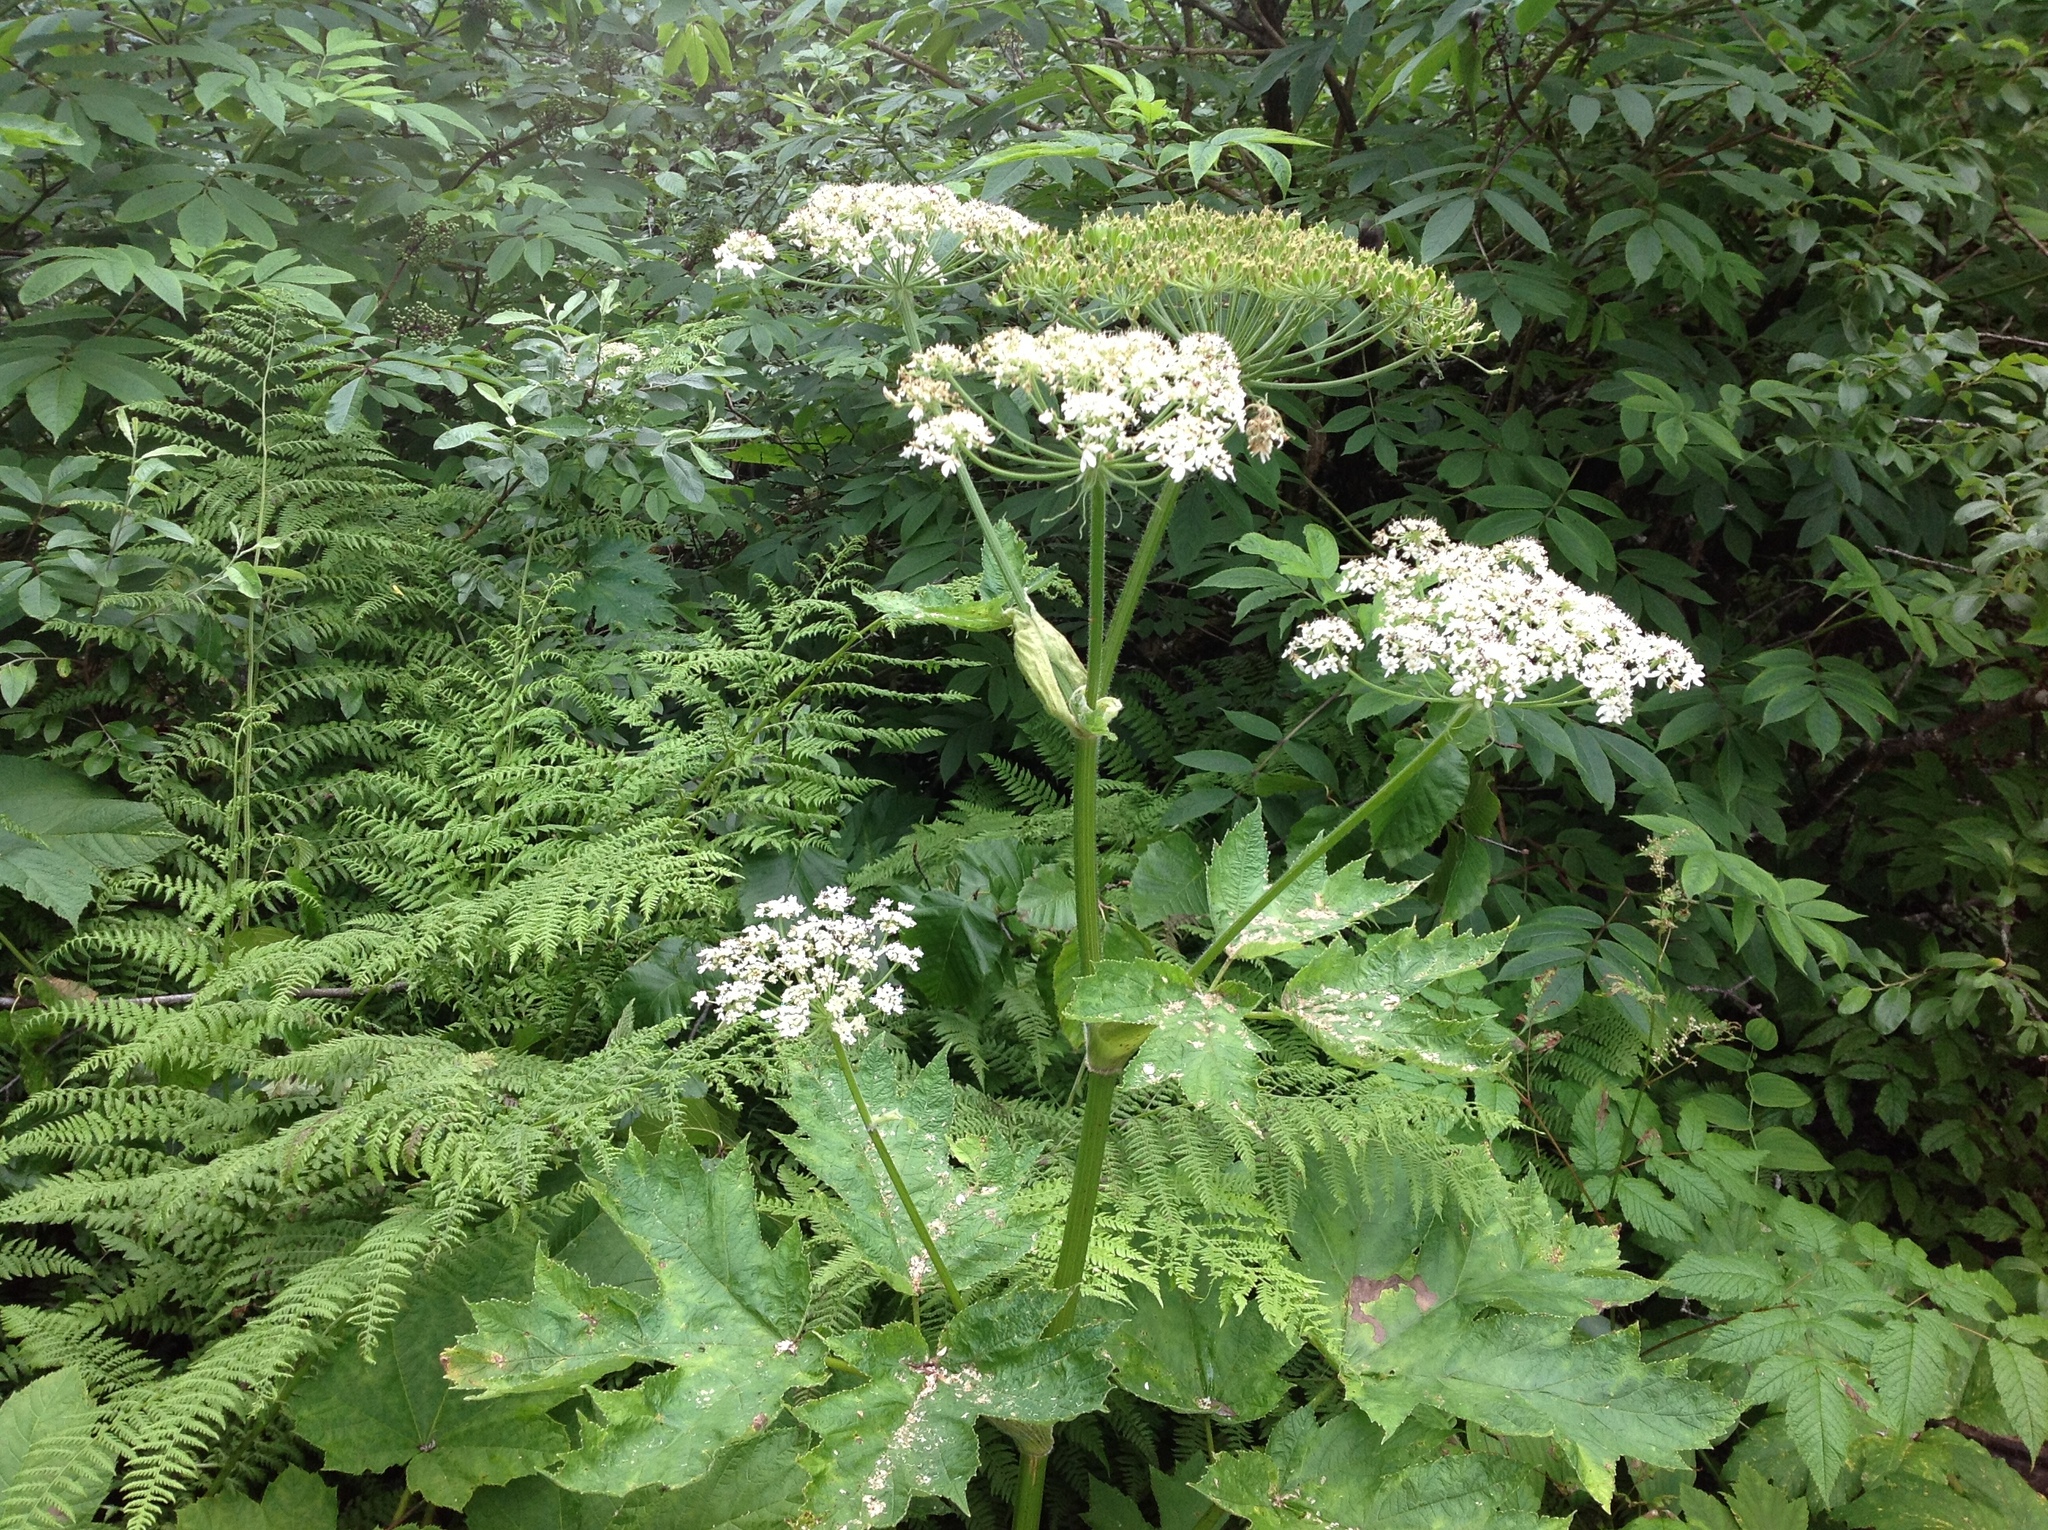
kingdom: Plantae
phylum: Tracheophyta
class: Magnoliopsida
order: Apiales
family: Apiaceae
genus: Heracleum
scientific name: Heracleum maximum
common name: American cow parsnip
